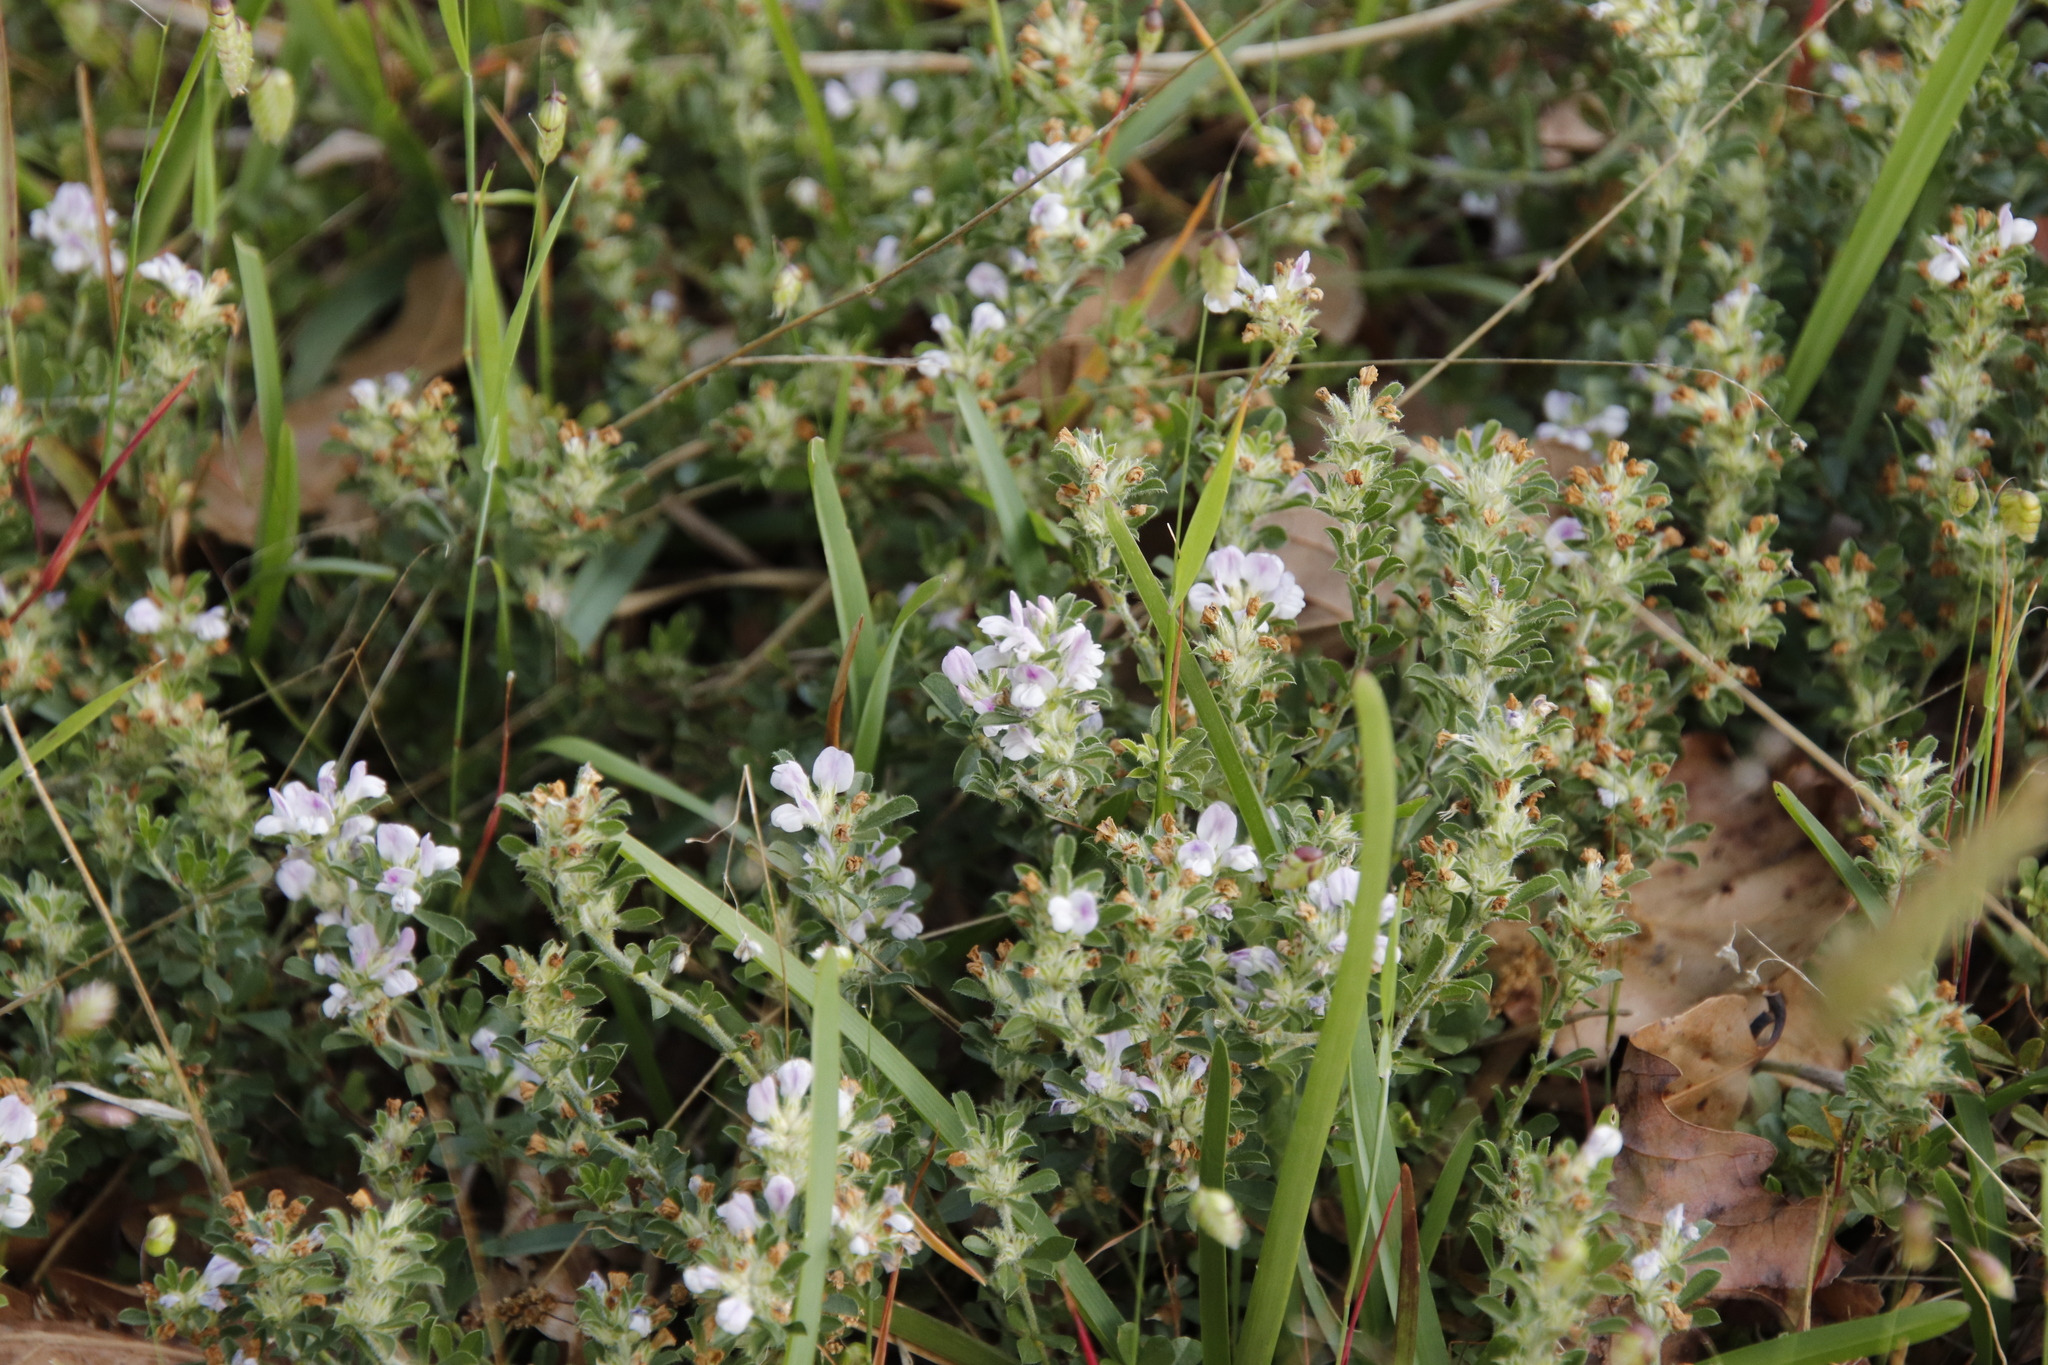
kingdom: Plantae
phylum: Tracheophyta
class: Magnoliopsida
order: Fabales
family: Fabaceae
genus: Psoralea
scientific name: Psoralea
